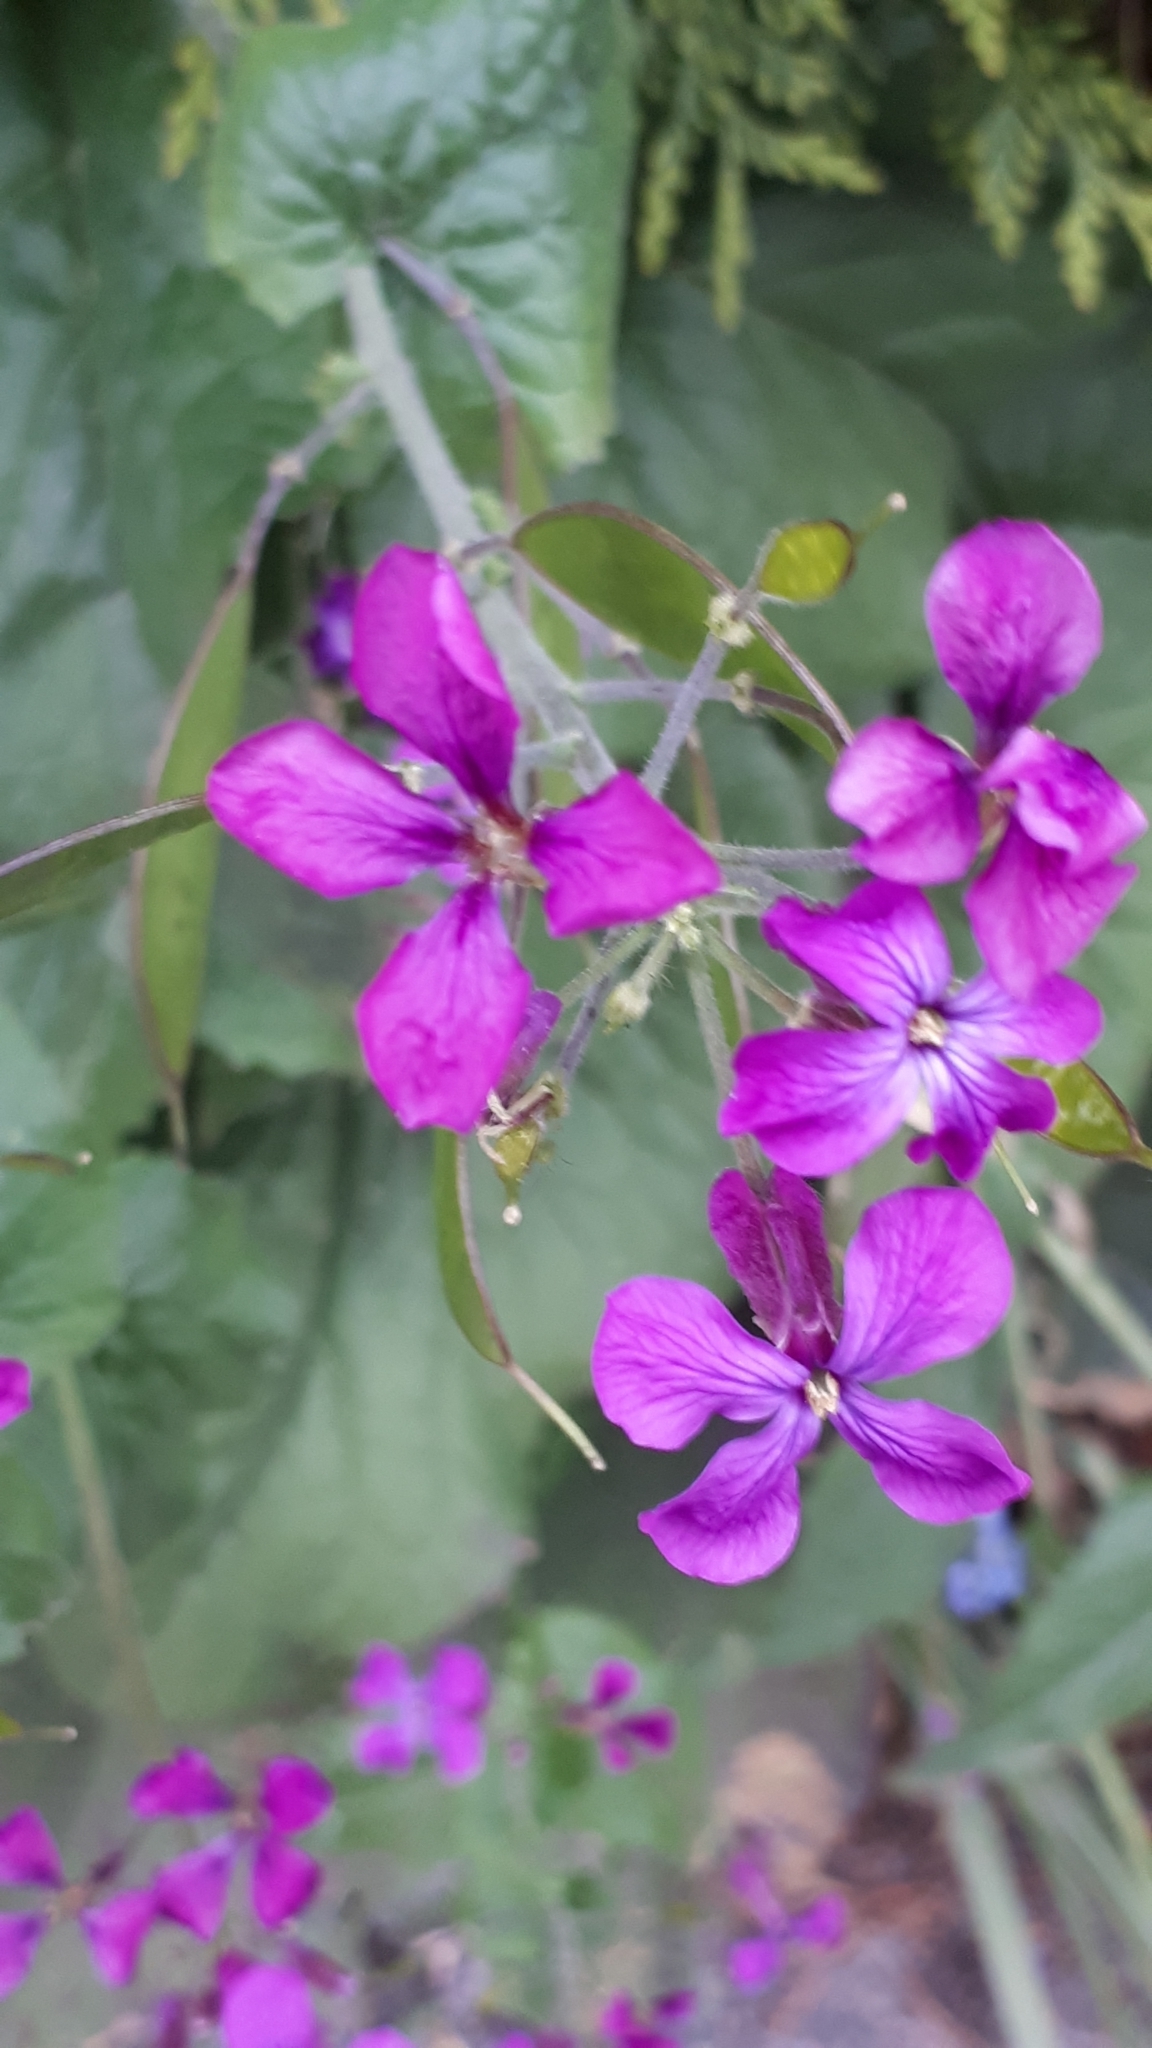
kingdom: Plantae
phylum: Tracheophyta
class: Magnoliopsida
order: Brassicales
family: Brassicaceae
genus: Lunaria
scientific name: Lunaria annua
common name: Honesty
